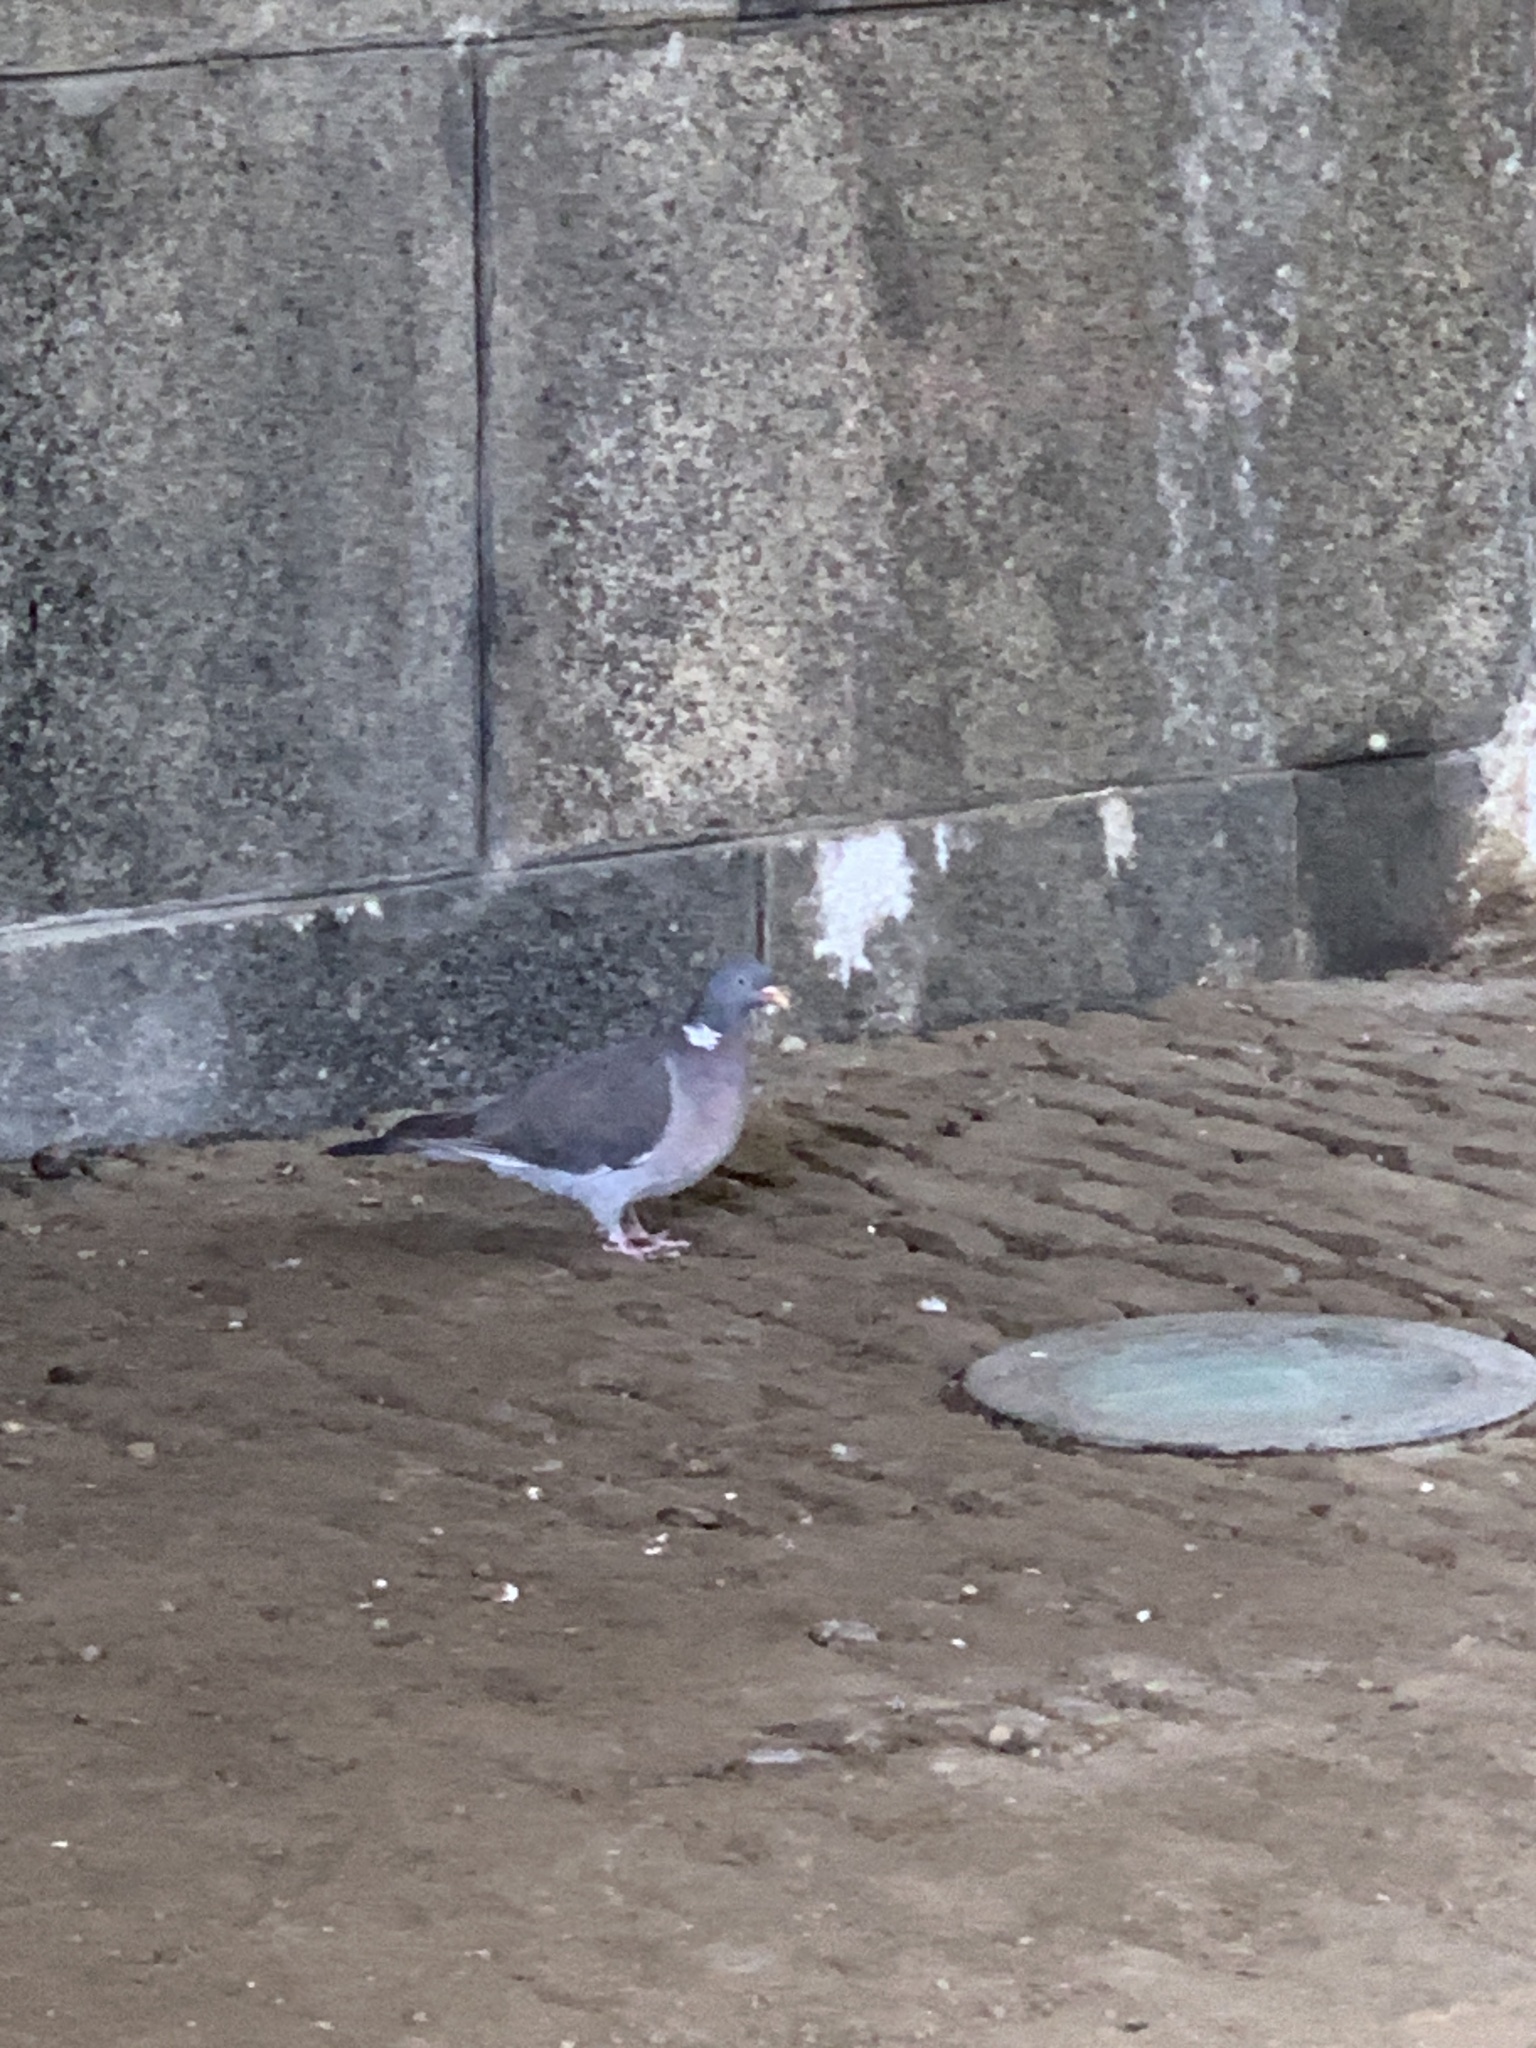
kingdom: Animalia
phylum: Chordata
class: Aves
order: Columbiformes
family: Columbidae
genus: Columba
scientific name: Columba palumbus
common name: Common wood pigeon
